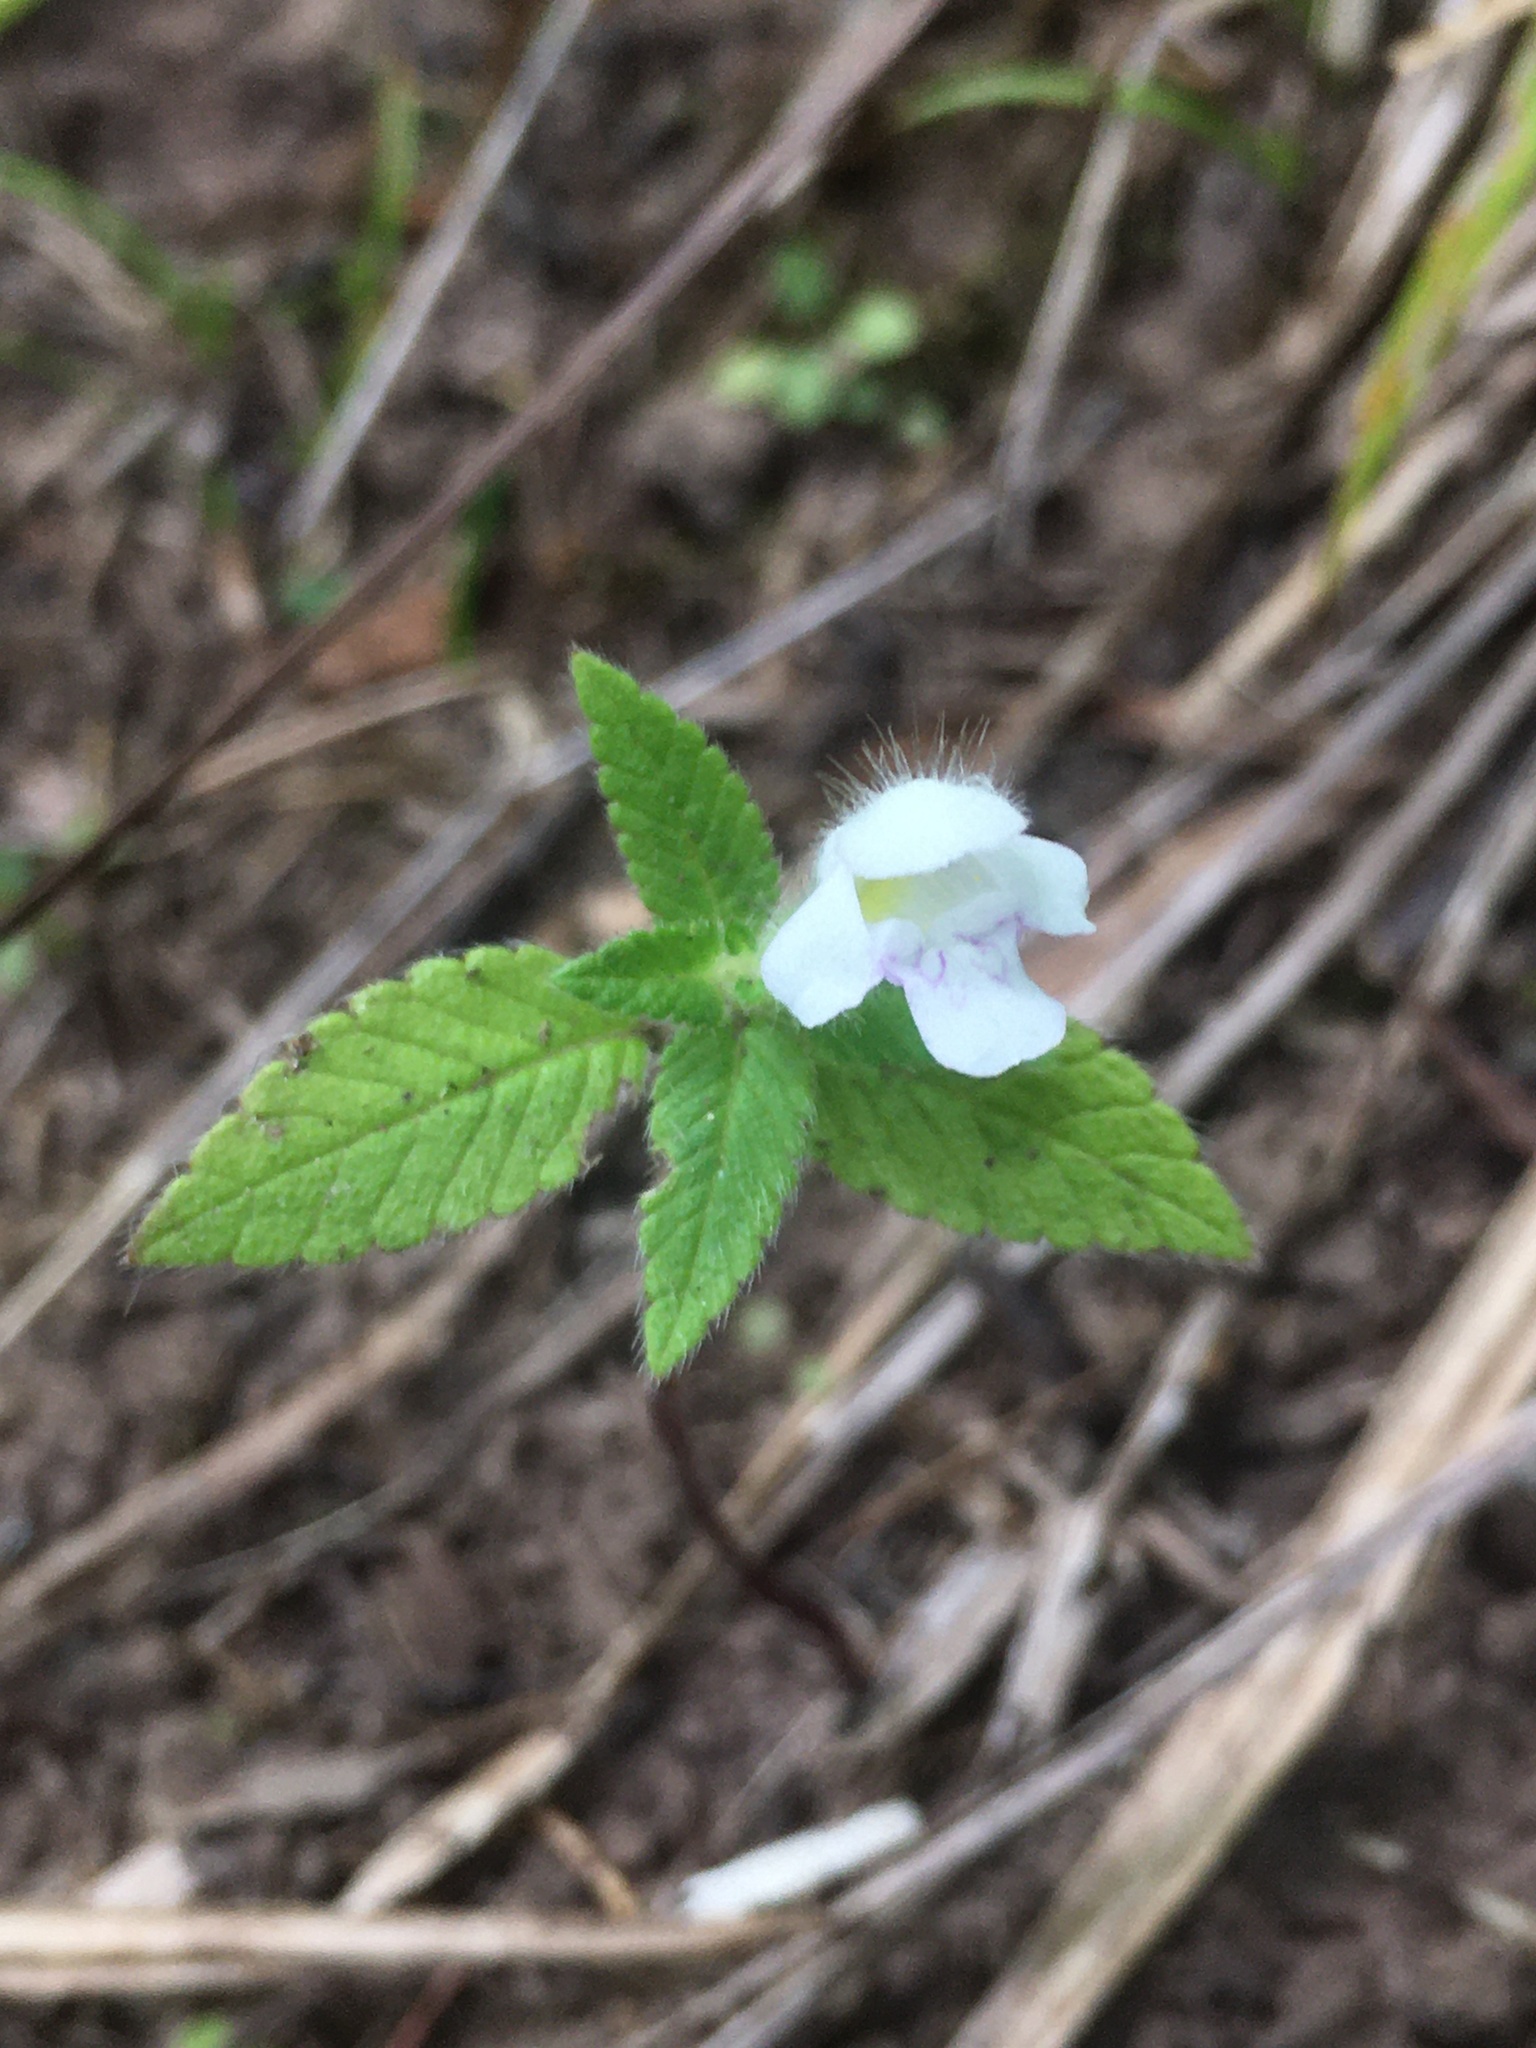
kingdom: Plantae
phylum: Tracheophyta
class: Magnoliopsida
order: Lamiales
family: Lamiaceae
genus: Galeopsis
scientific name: Galeopsis tetrahit
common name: Common hemp-nettle
